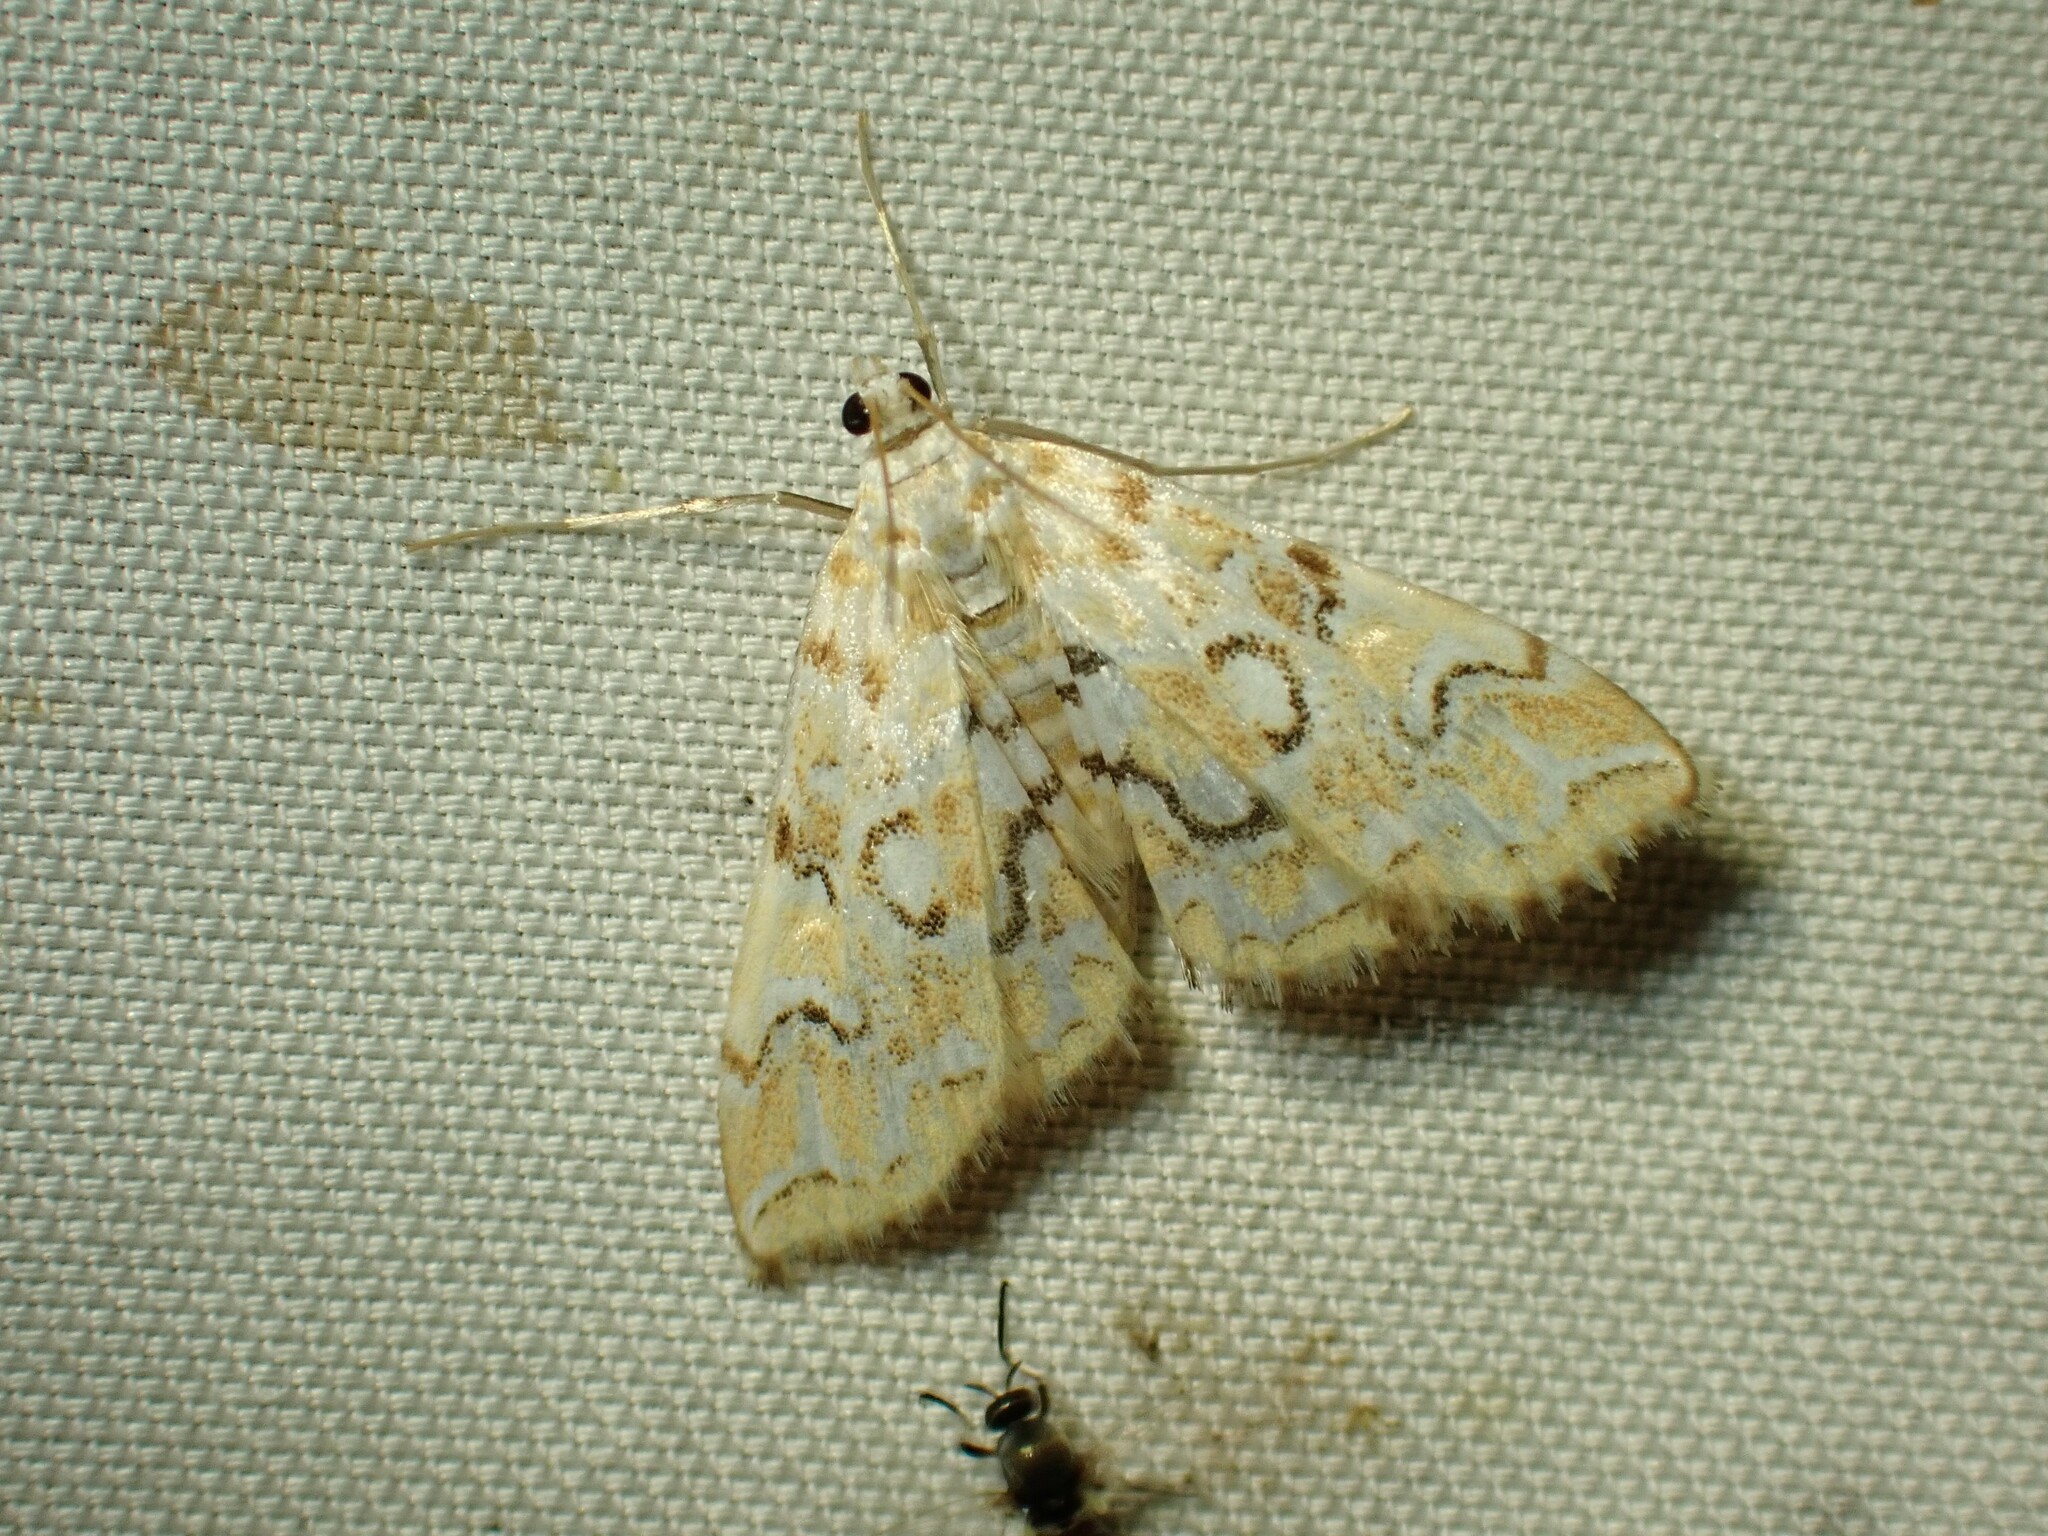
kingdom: Animalia
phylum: Arthropoda
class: Insecta
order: Lepidoptera
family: Crambidae
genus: Elophila
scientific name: Elophila icciusalis
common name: Pondside pyralid moth
